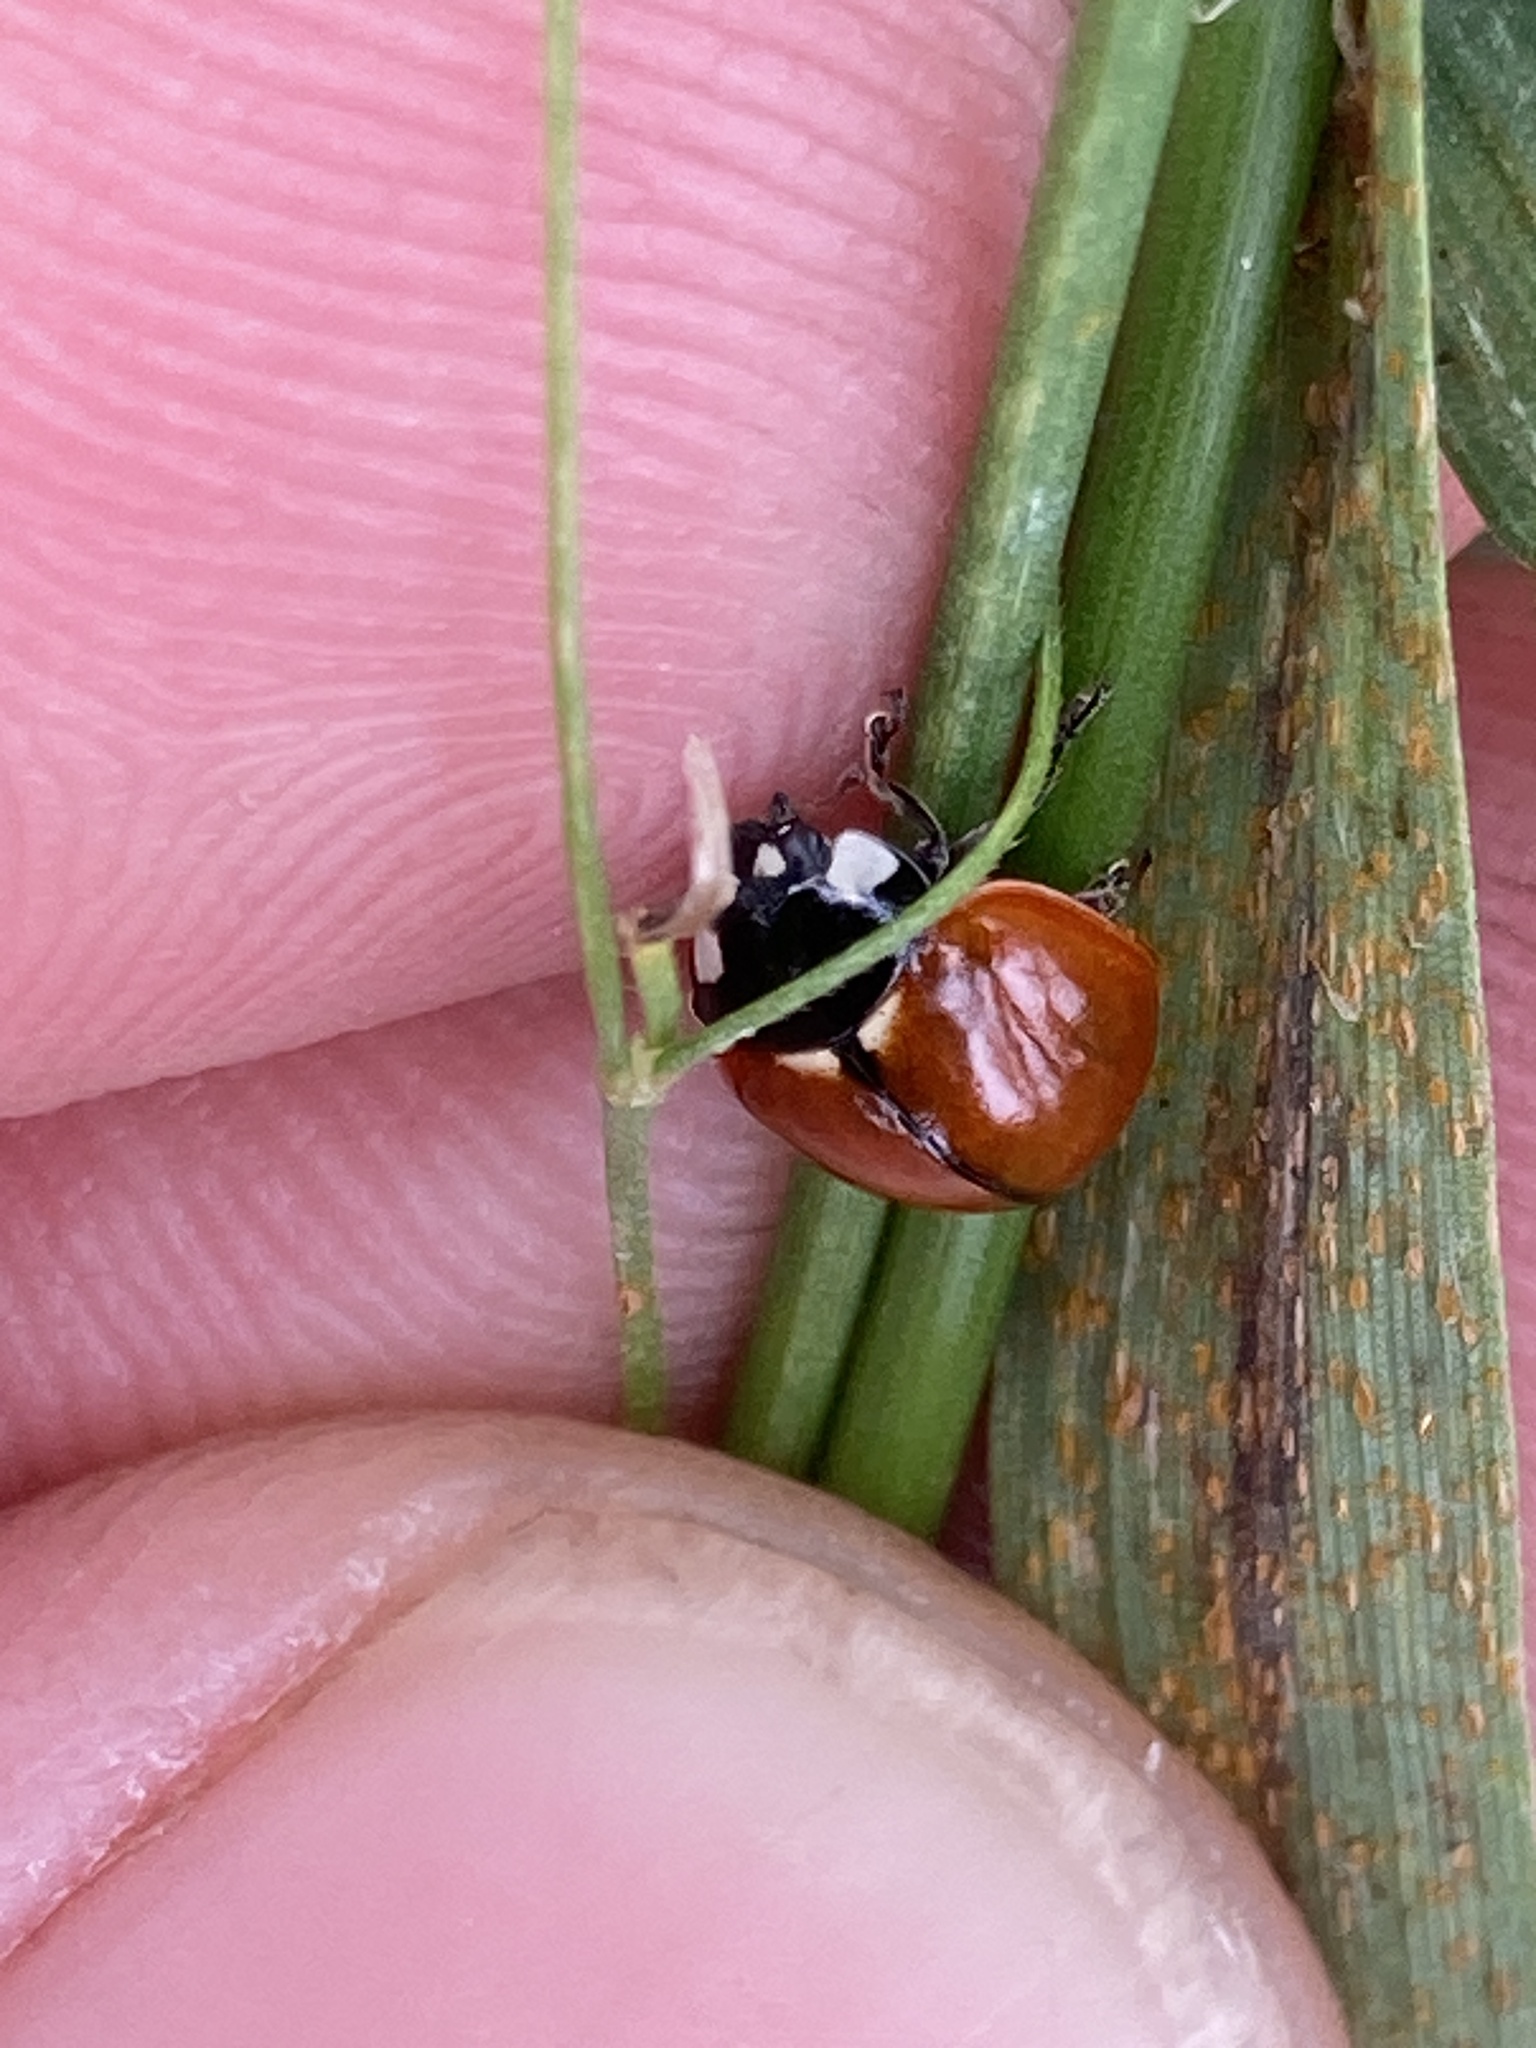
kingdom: Animalia
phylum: Arthropoda
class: Insecta
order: Coleoptera
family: Coccinellidae
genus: Coccinella
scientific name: Coccinella californica
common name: Lady beetle
